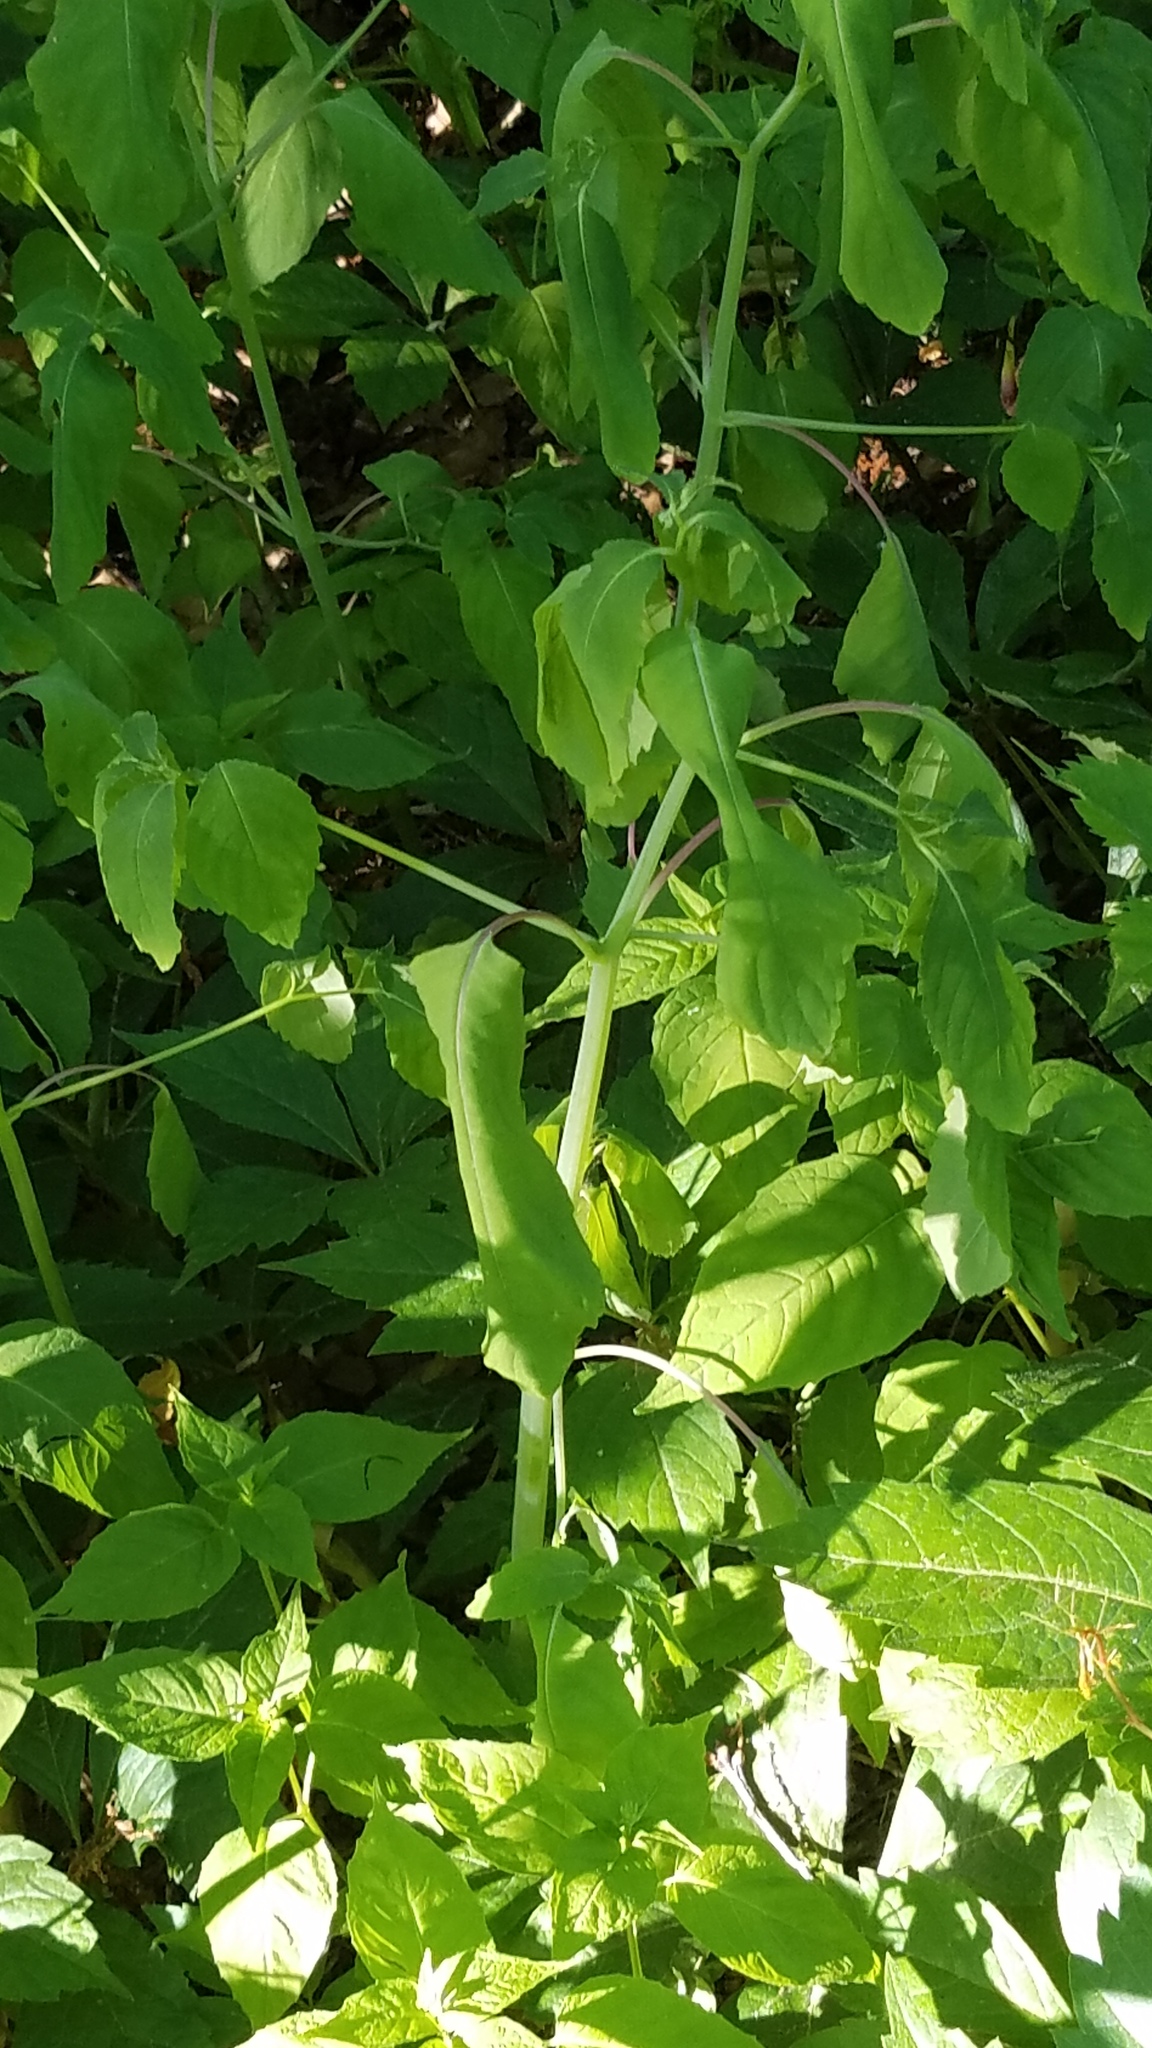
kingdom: Plantae
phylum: Tracheophyta
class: Magnoliopsida
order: Ericales
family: Balsaminaceae
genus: Impatiens
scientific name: Impatiens capensis
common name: Orange balsam
